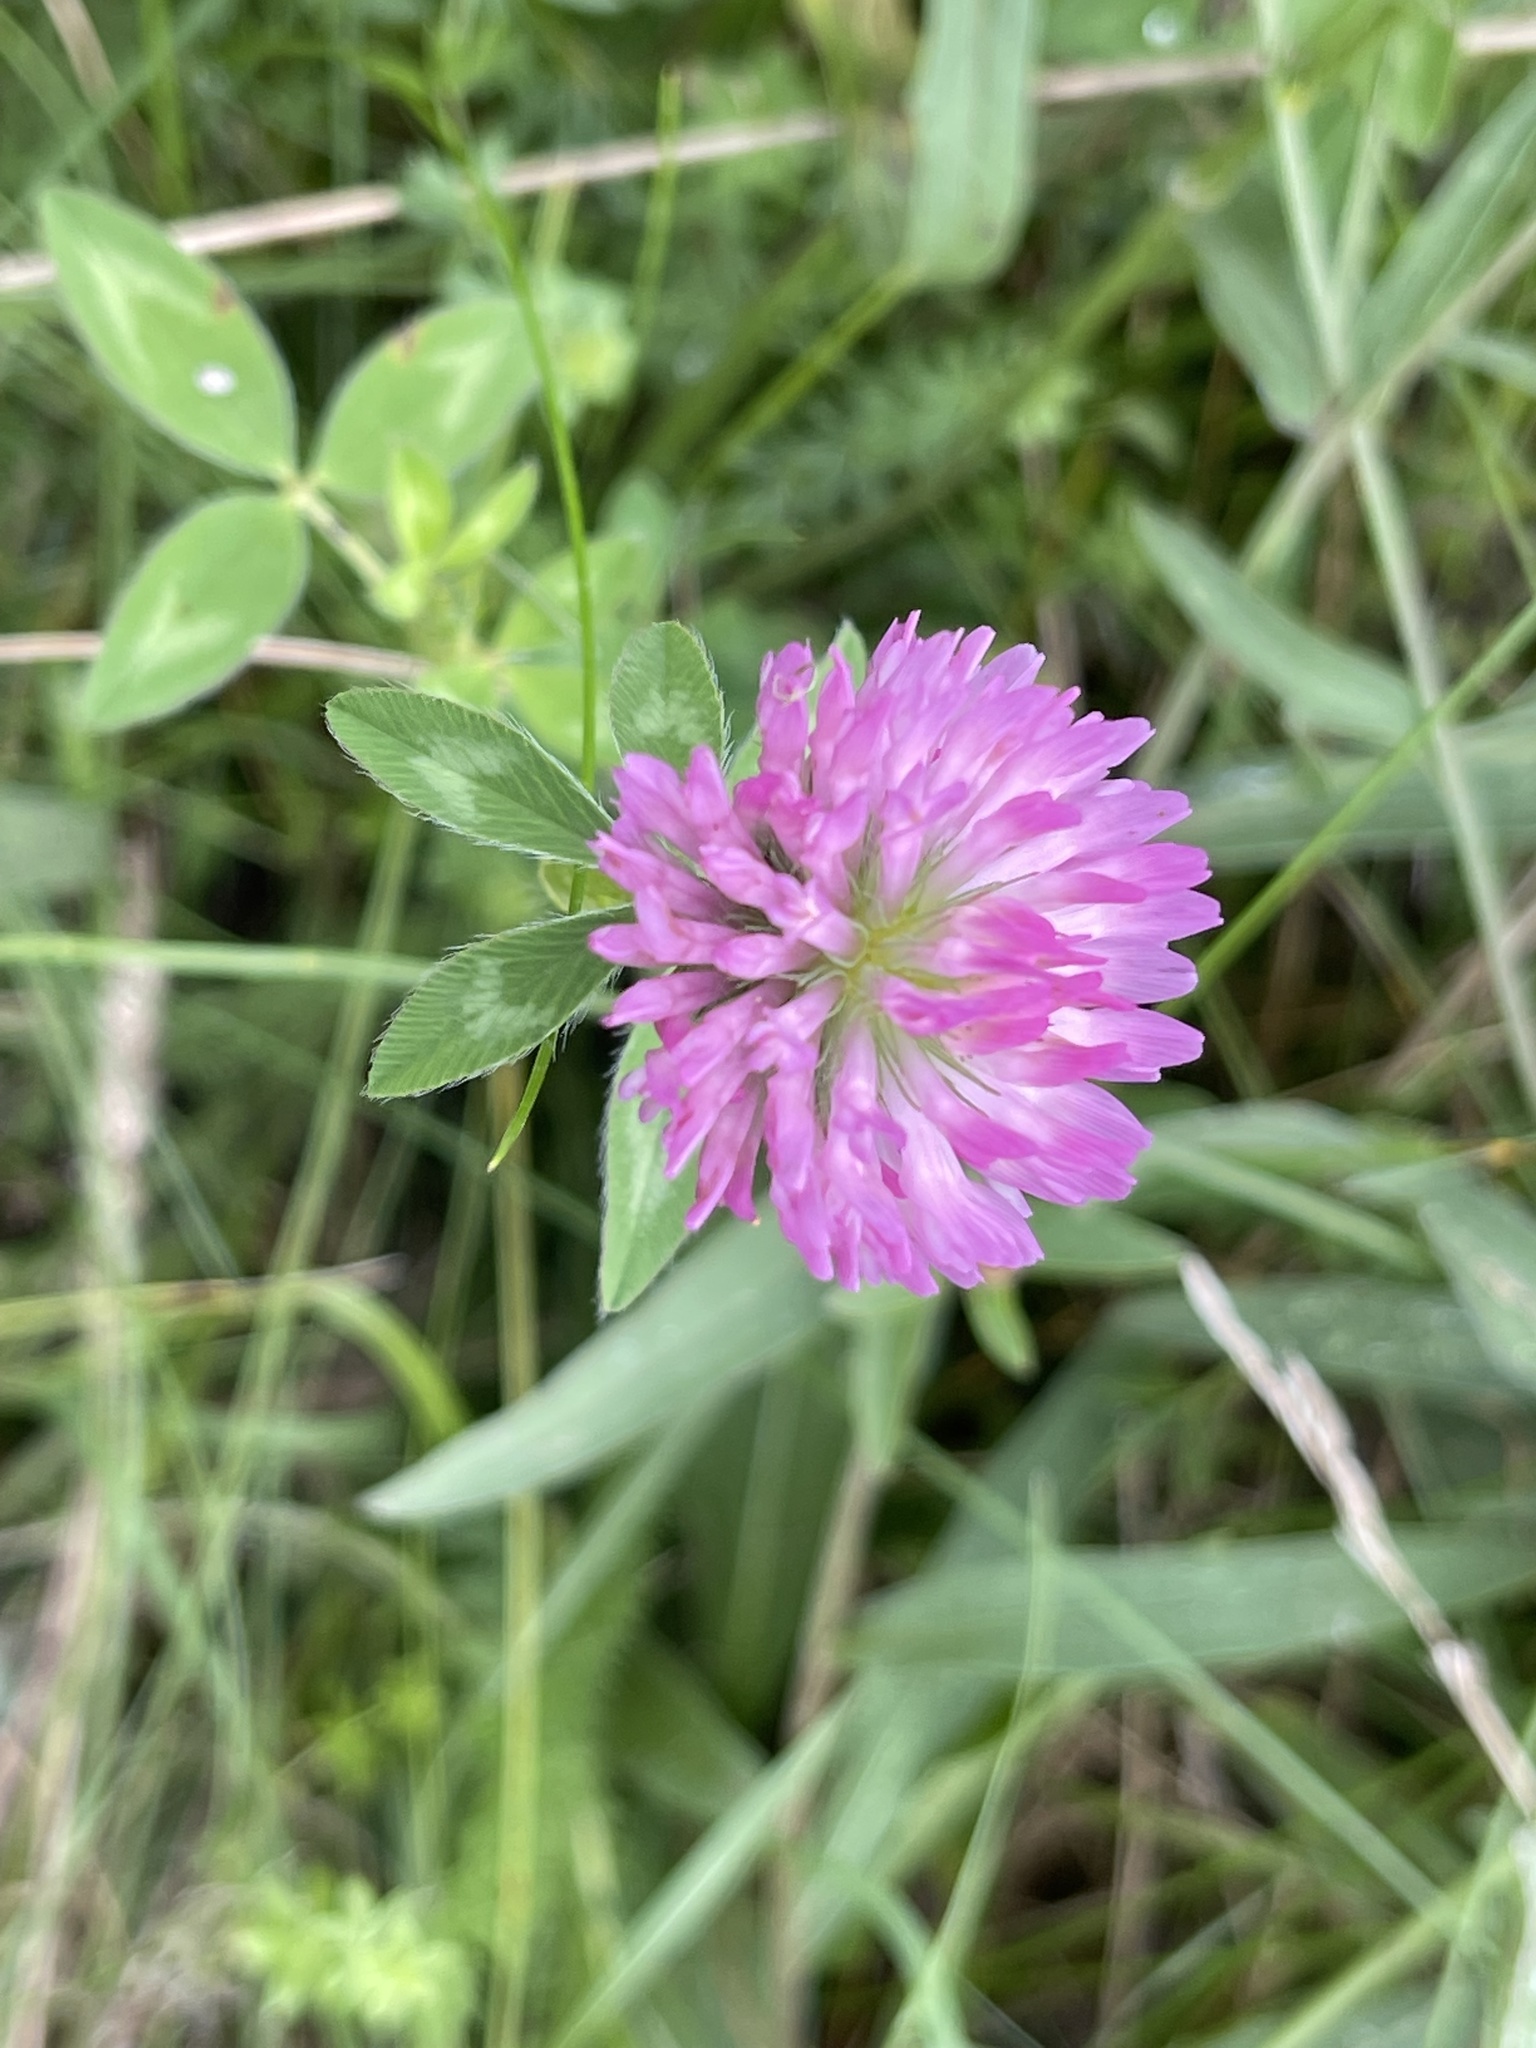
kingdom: Plantae
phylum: Tracheophyta
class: Magnoliopsida
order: Fabales
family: Fabaceae
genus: Trifolium
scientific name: Trifolium pratense
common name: Red clover
